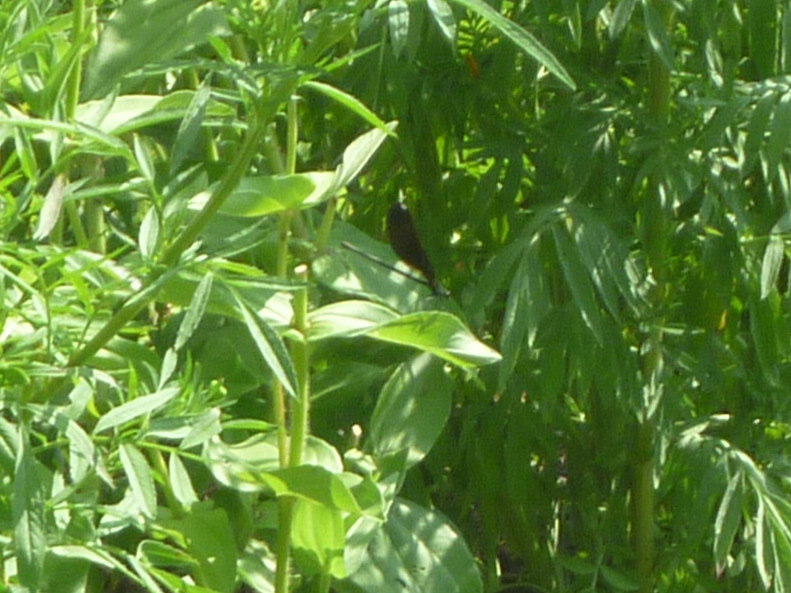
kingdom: Animalia
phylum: Arthropoda
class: Insecta
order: Odonata
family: Calopterygidae
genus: Calopteryx
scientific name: Calopteryx maculata
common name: Ebony jewelwing
